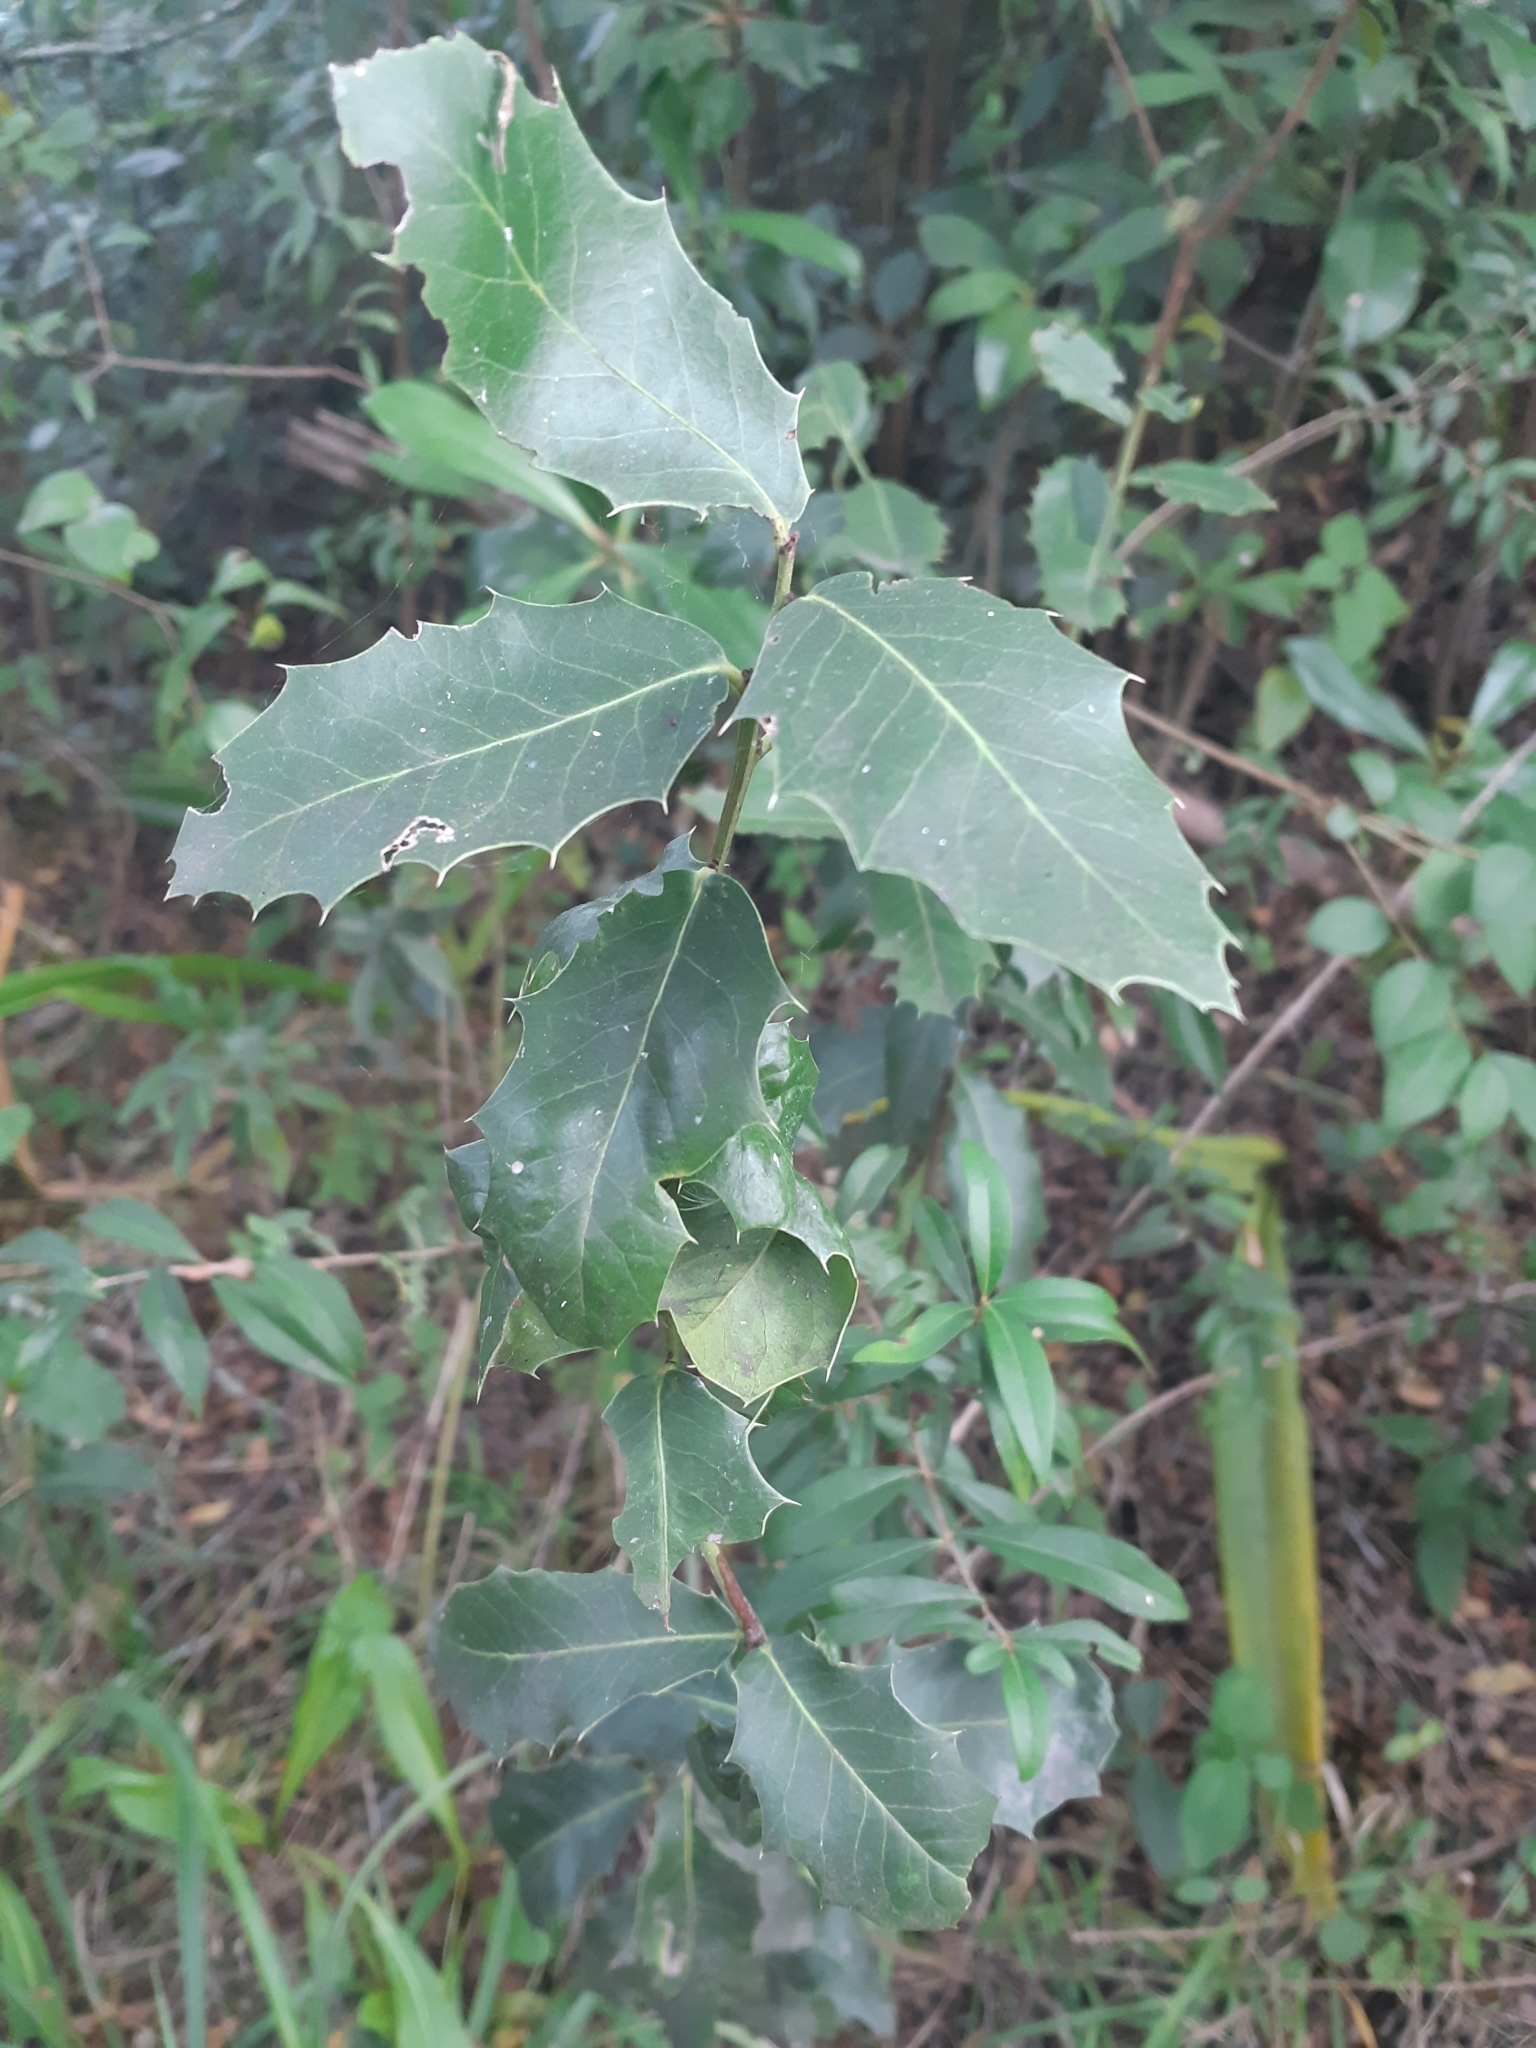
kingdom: Plantae
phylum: Tracheophyta
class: Magnoliopsida
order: Celastrales
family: Celastraceae
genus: Monteverdia
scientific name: Monteverdia
